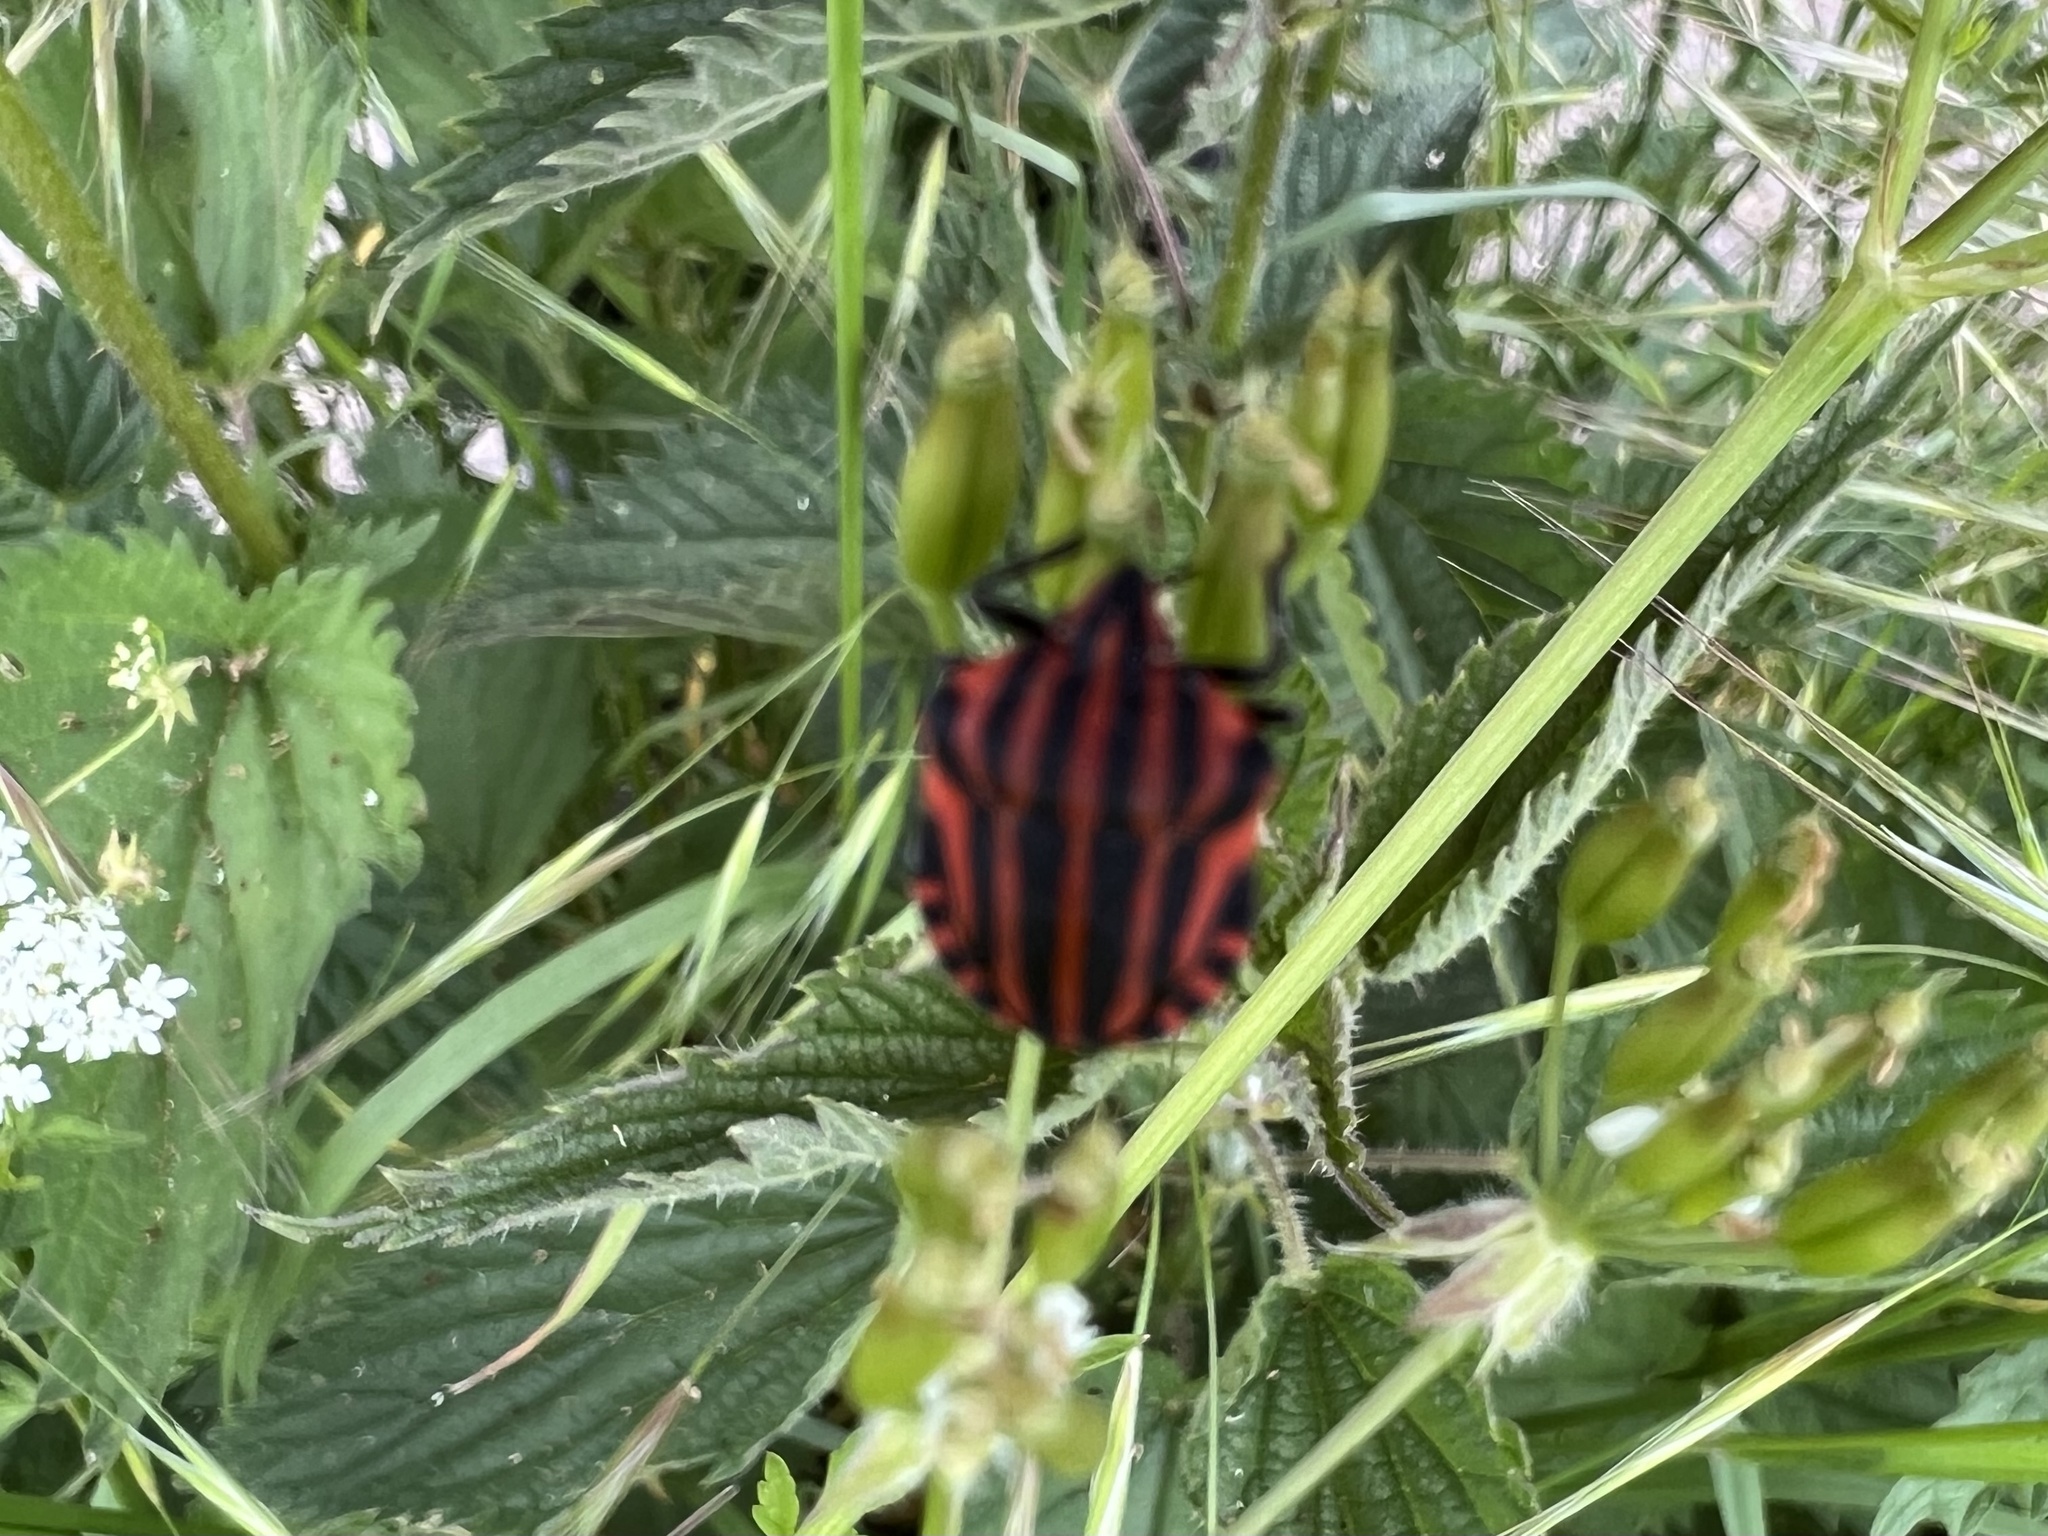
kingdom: Animalia
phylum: Arthropoda
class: Insecta
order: Hemiptera
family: Pentatomidae
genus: Graphosoma
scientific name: Graphosoma italicum
